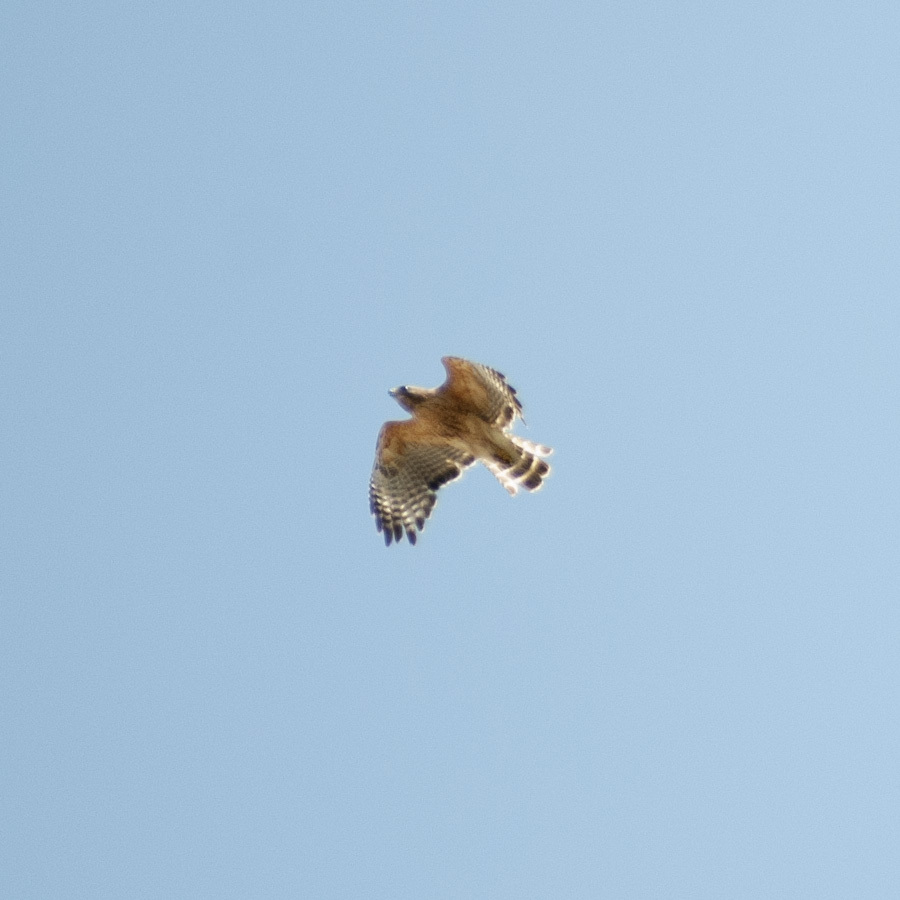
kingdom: Animalia
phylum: Chordata
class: Aves
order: Accipitriformes
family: Accipitridae
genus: Buteo
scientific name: Buteo lineatus
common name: Red-shouldered hawk
